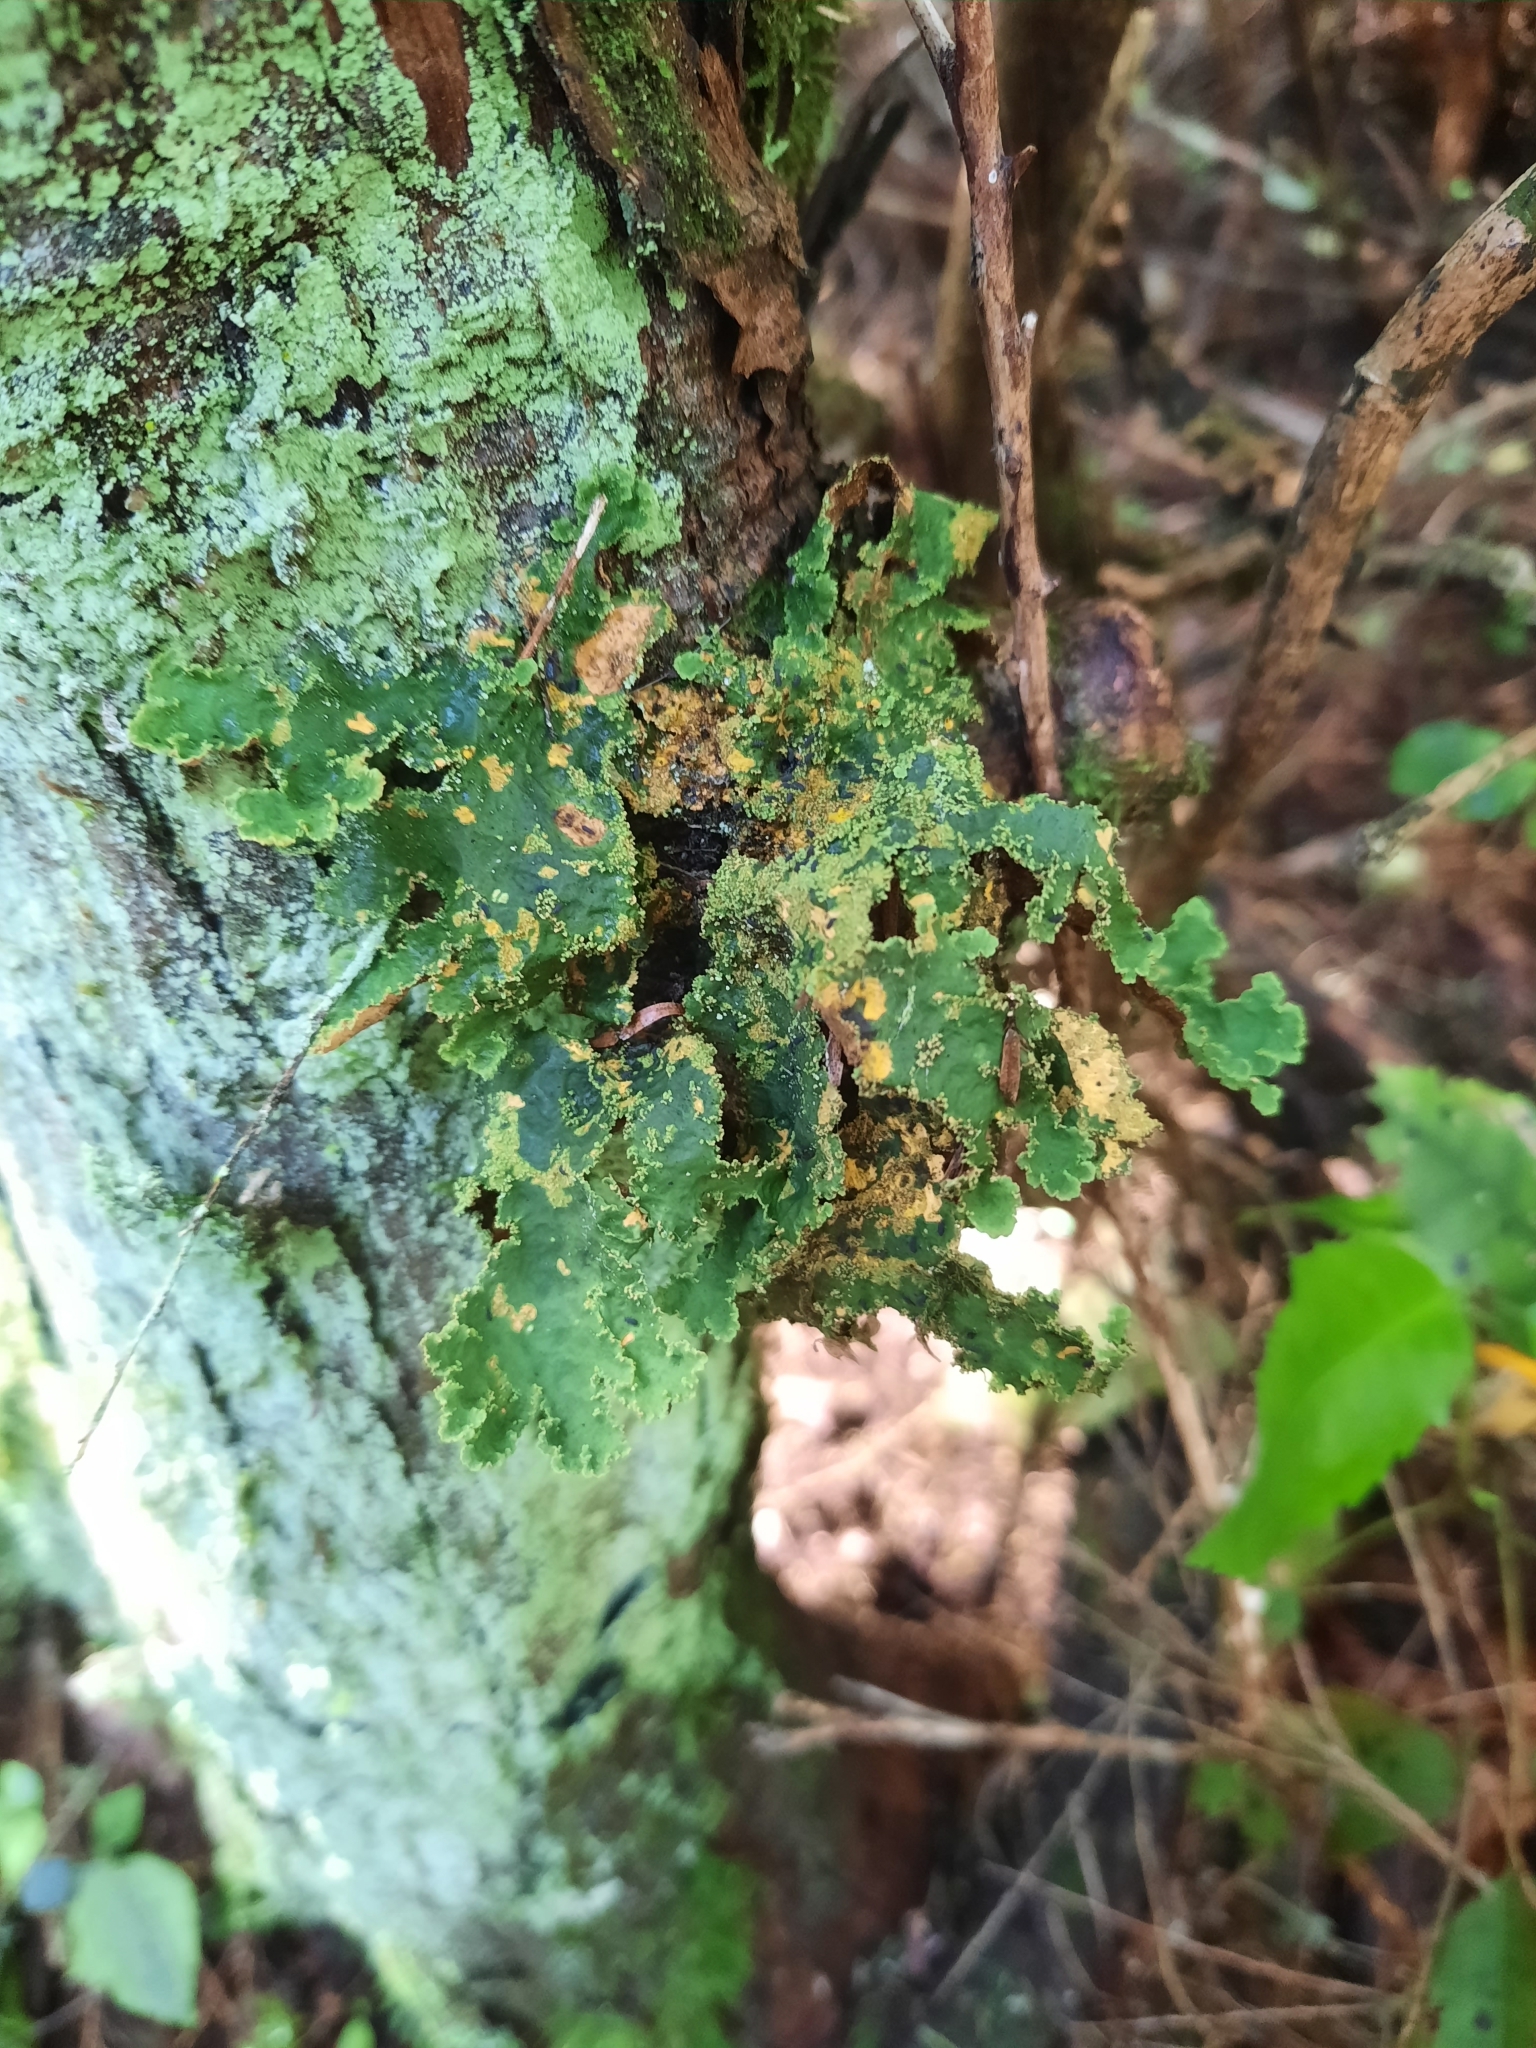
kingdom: Fungi
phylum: Ascomycota
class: Lecanoromycetes
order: Peltigerales
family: Lobariaceae
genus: Yarrumia
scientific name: Yarrumia colensoi
